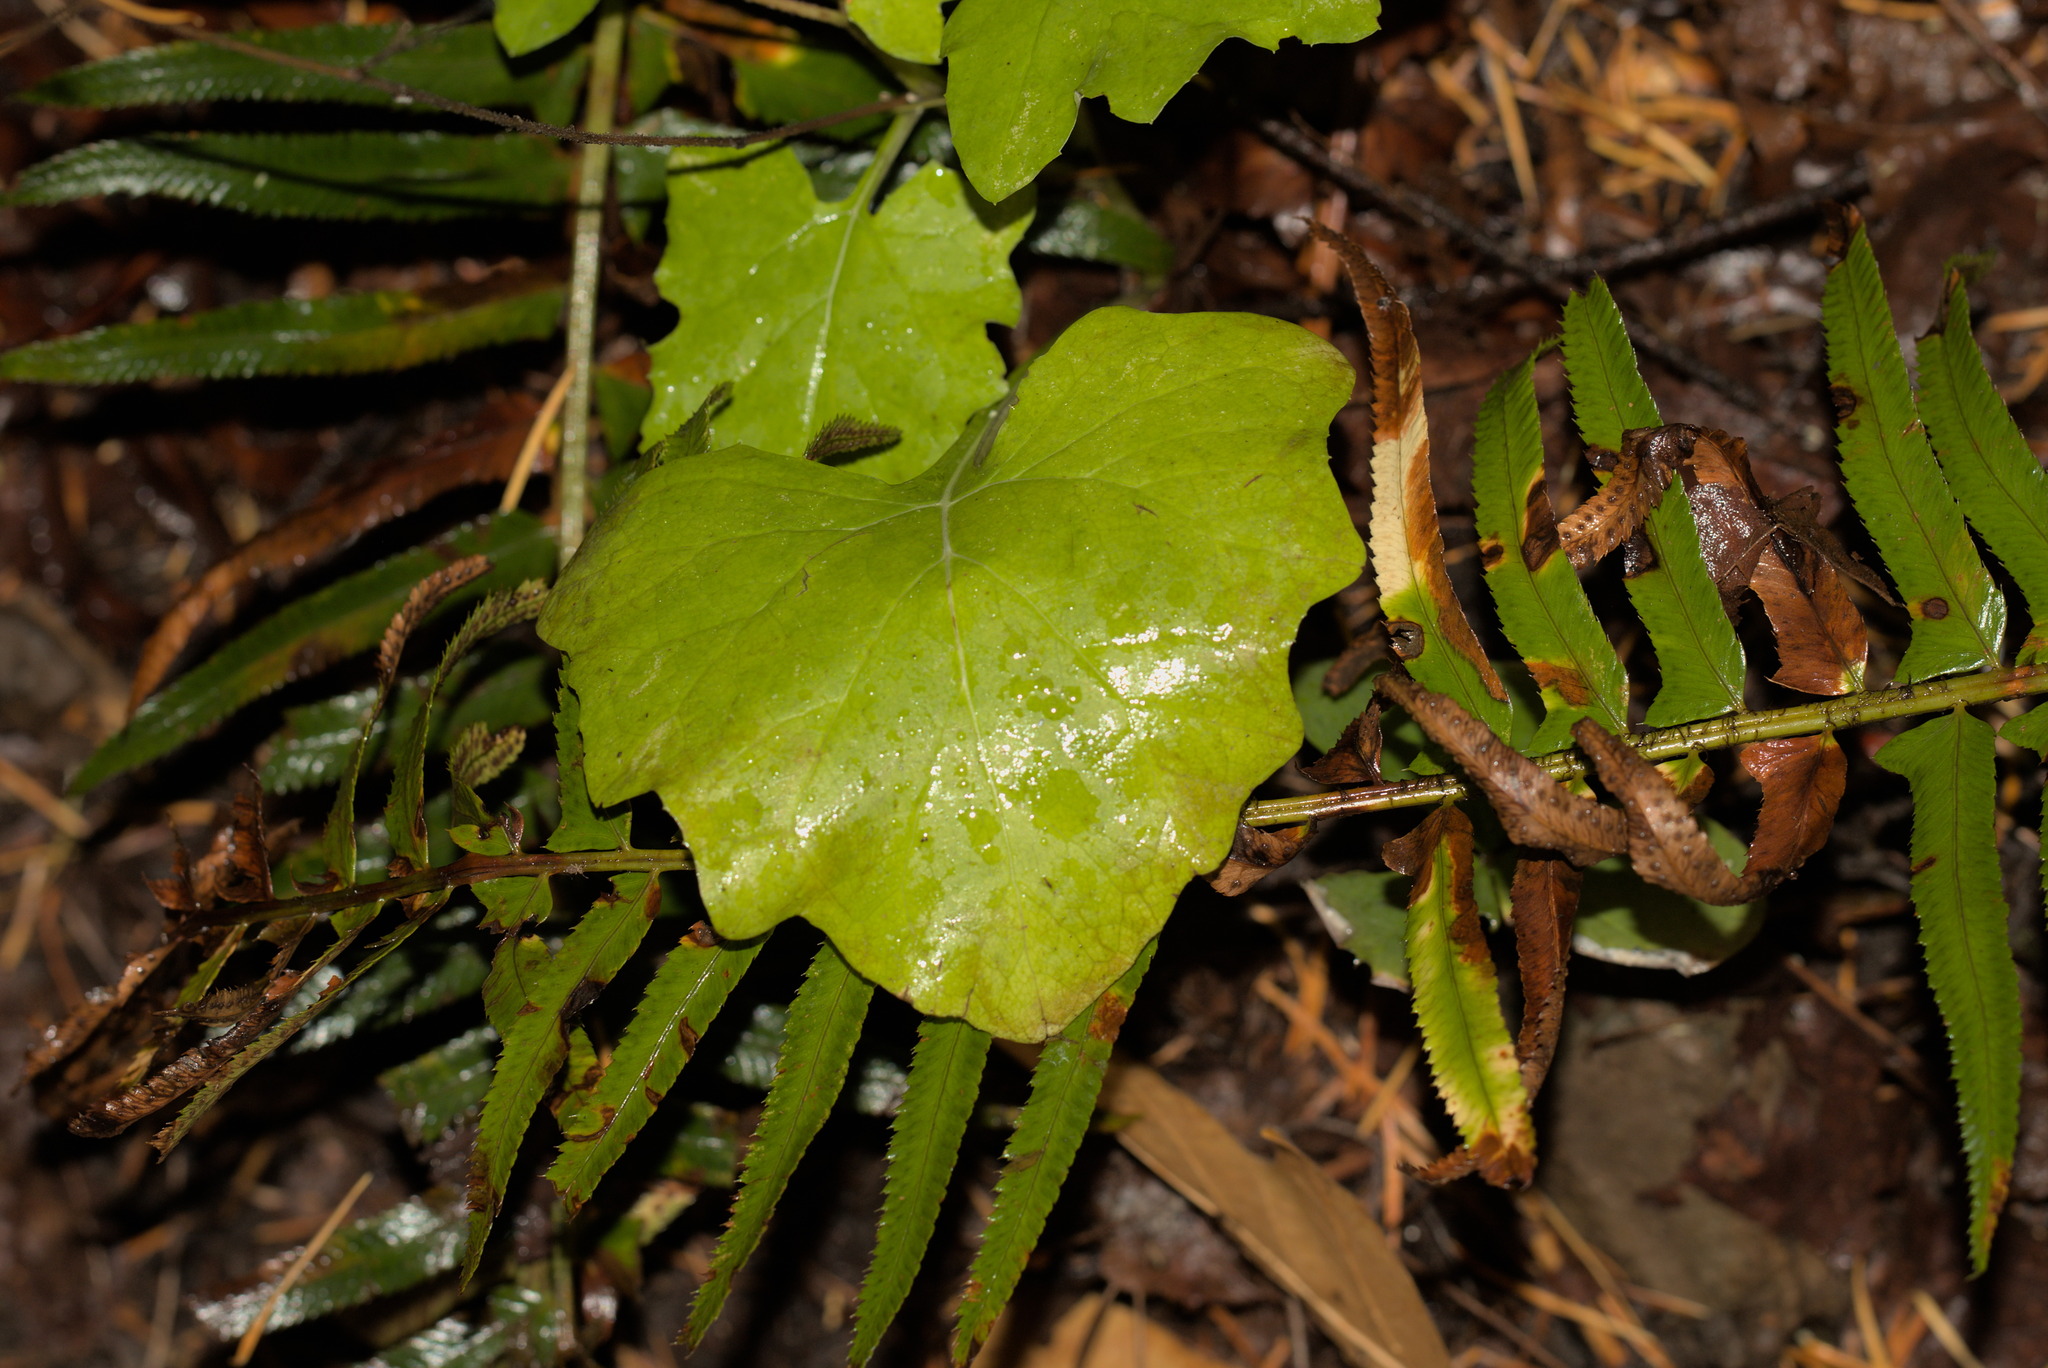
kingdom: Plantae
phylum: Tracheophyta
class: Magnoliopsida
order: Asterales
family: Asteraceae
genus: Adenocaulon
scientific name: Adenocaulon bicolor
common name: Trailplant
